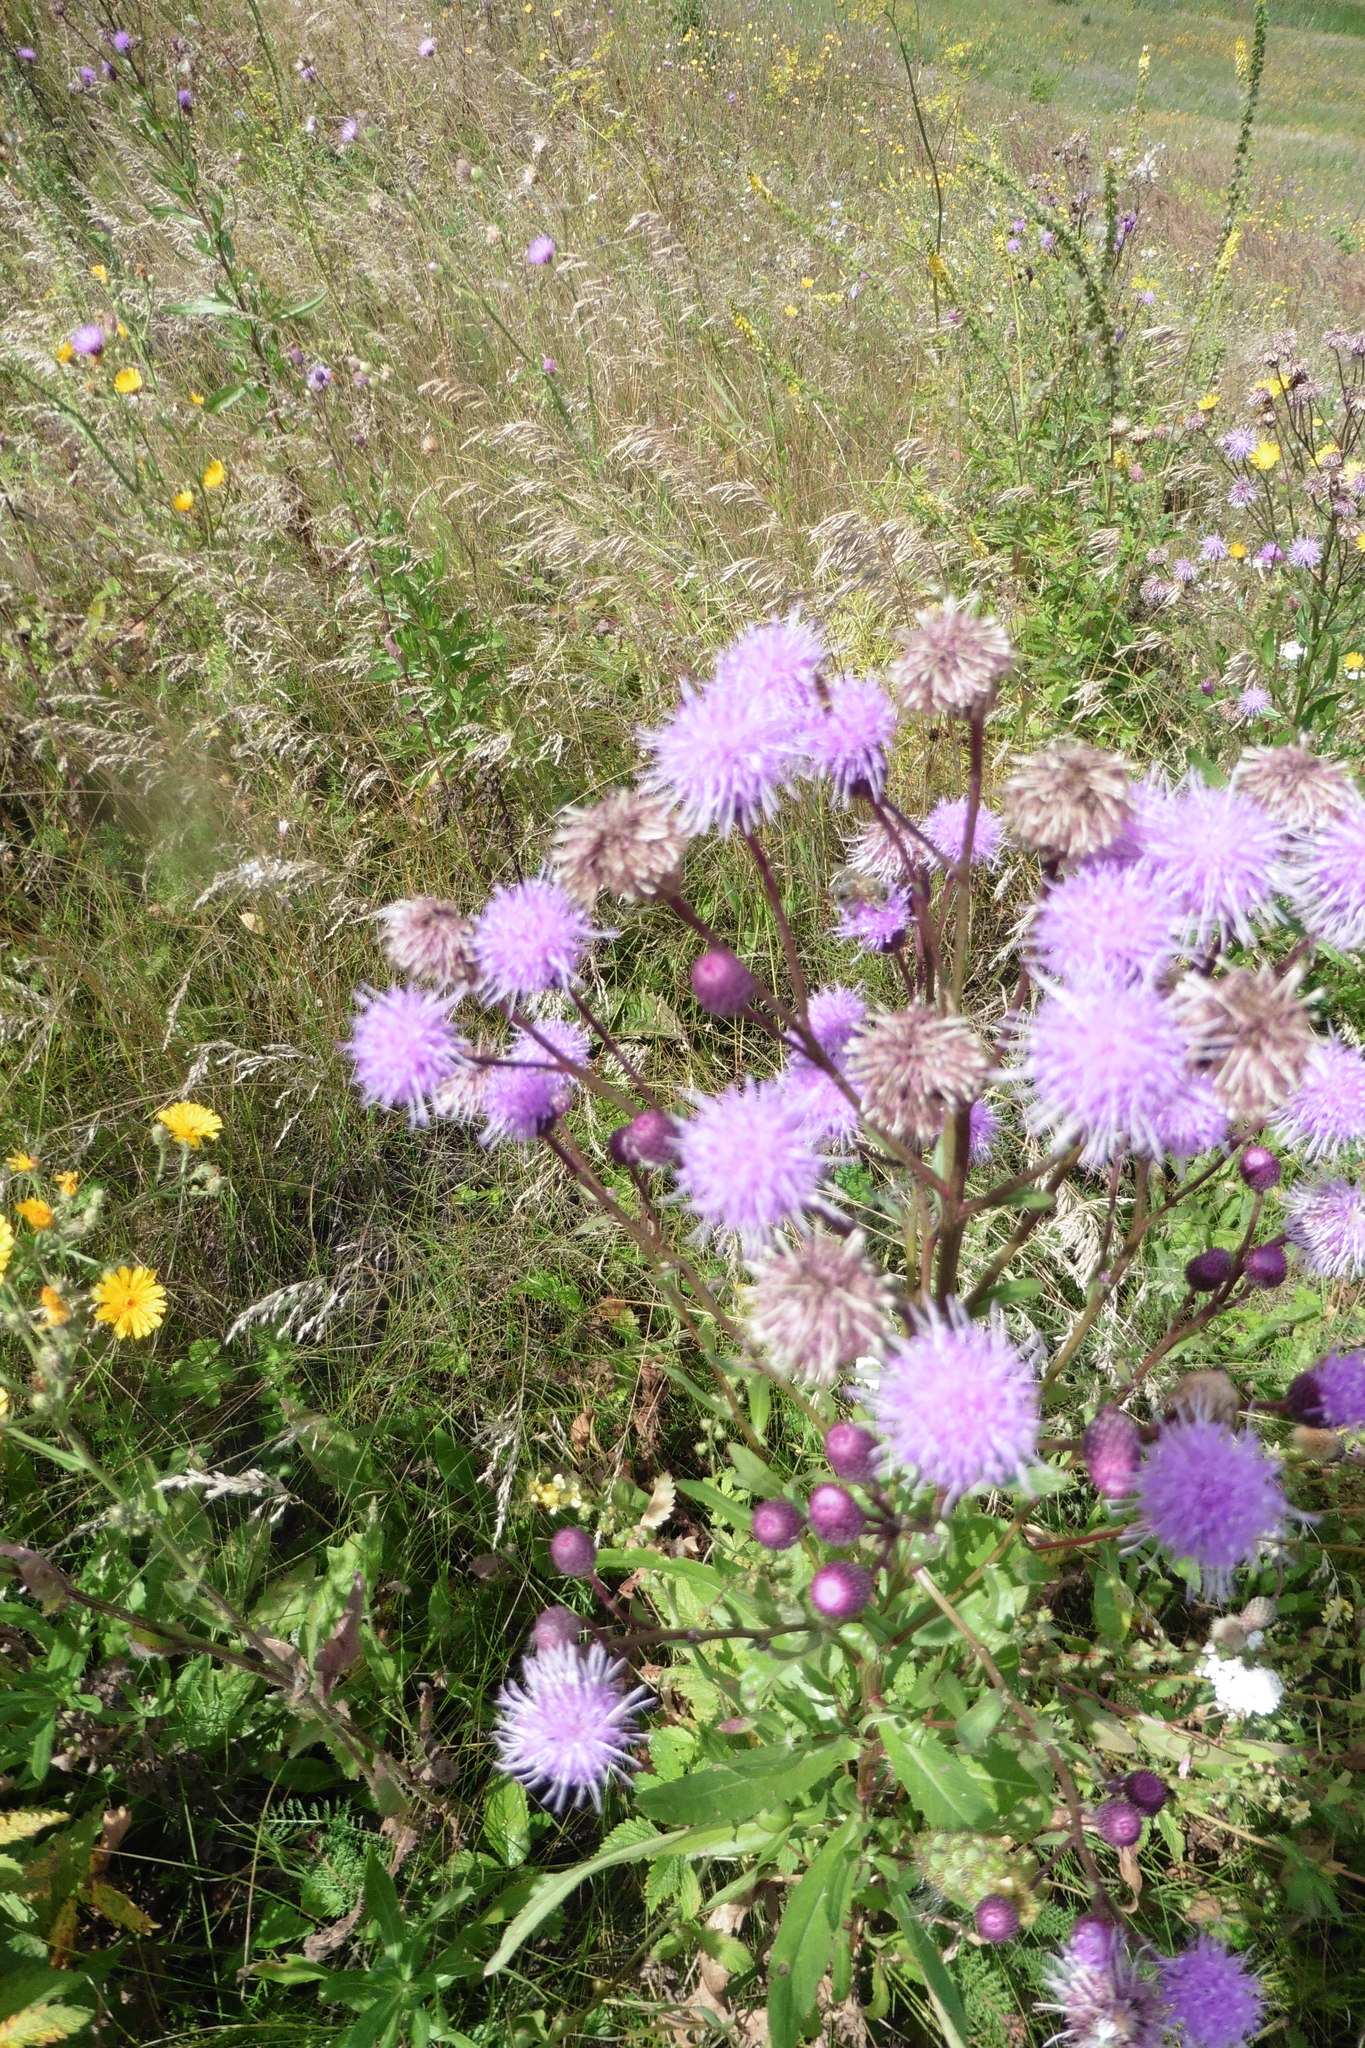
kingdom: Plantae
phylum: Tracheophyta
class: Magnoliopsida
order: Asterales
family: Asteraceae
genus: Cirsium
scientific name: Cirsium arvense
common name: Creeping thistle
